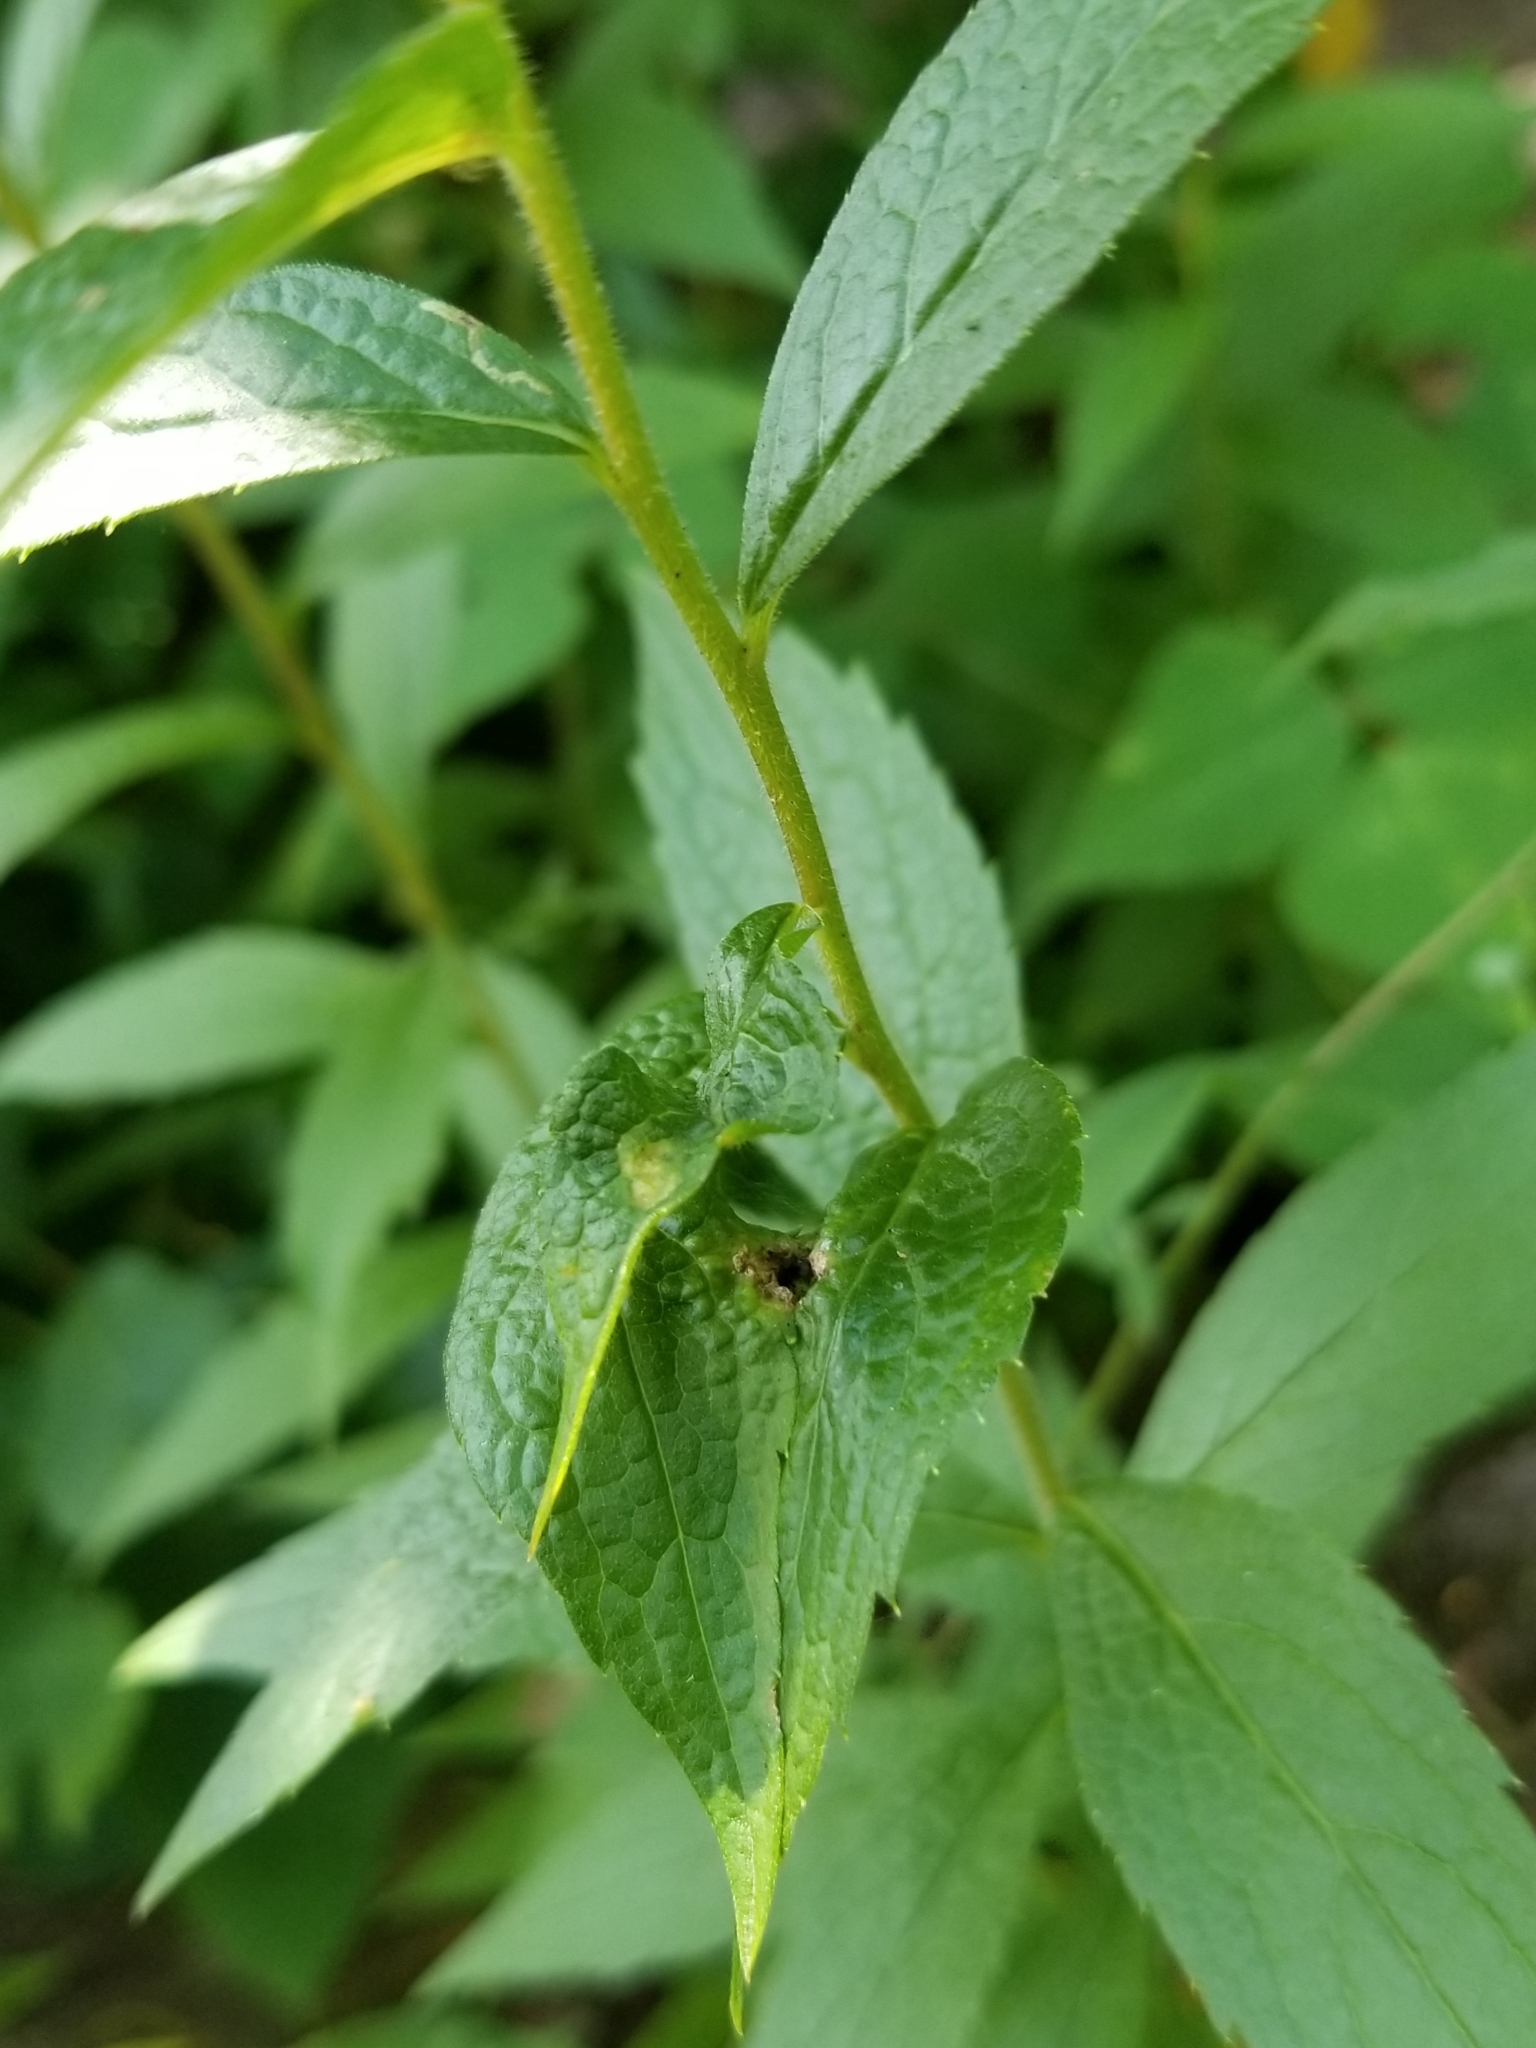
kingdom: Plantae
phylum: Tracheophyta
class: Magnoliopsida
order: Asterales
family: Asteraceae
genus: Solidago
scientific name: Solidago rugosa
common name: Rough-stemmed goldenrod
